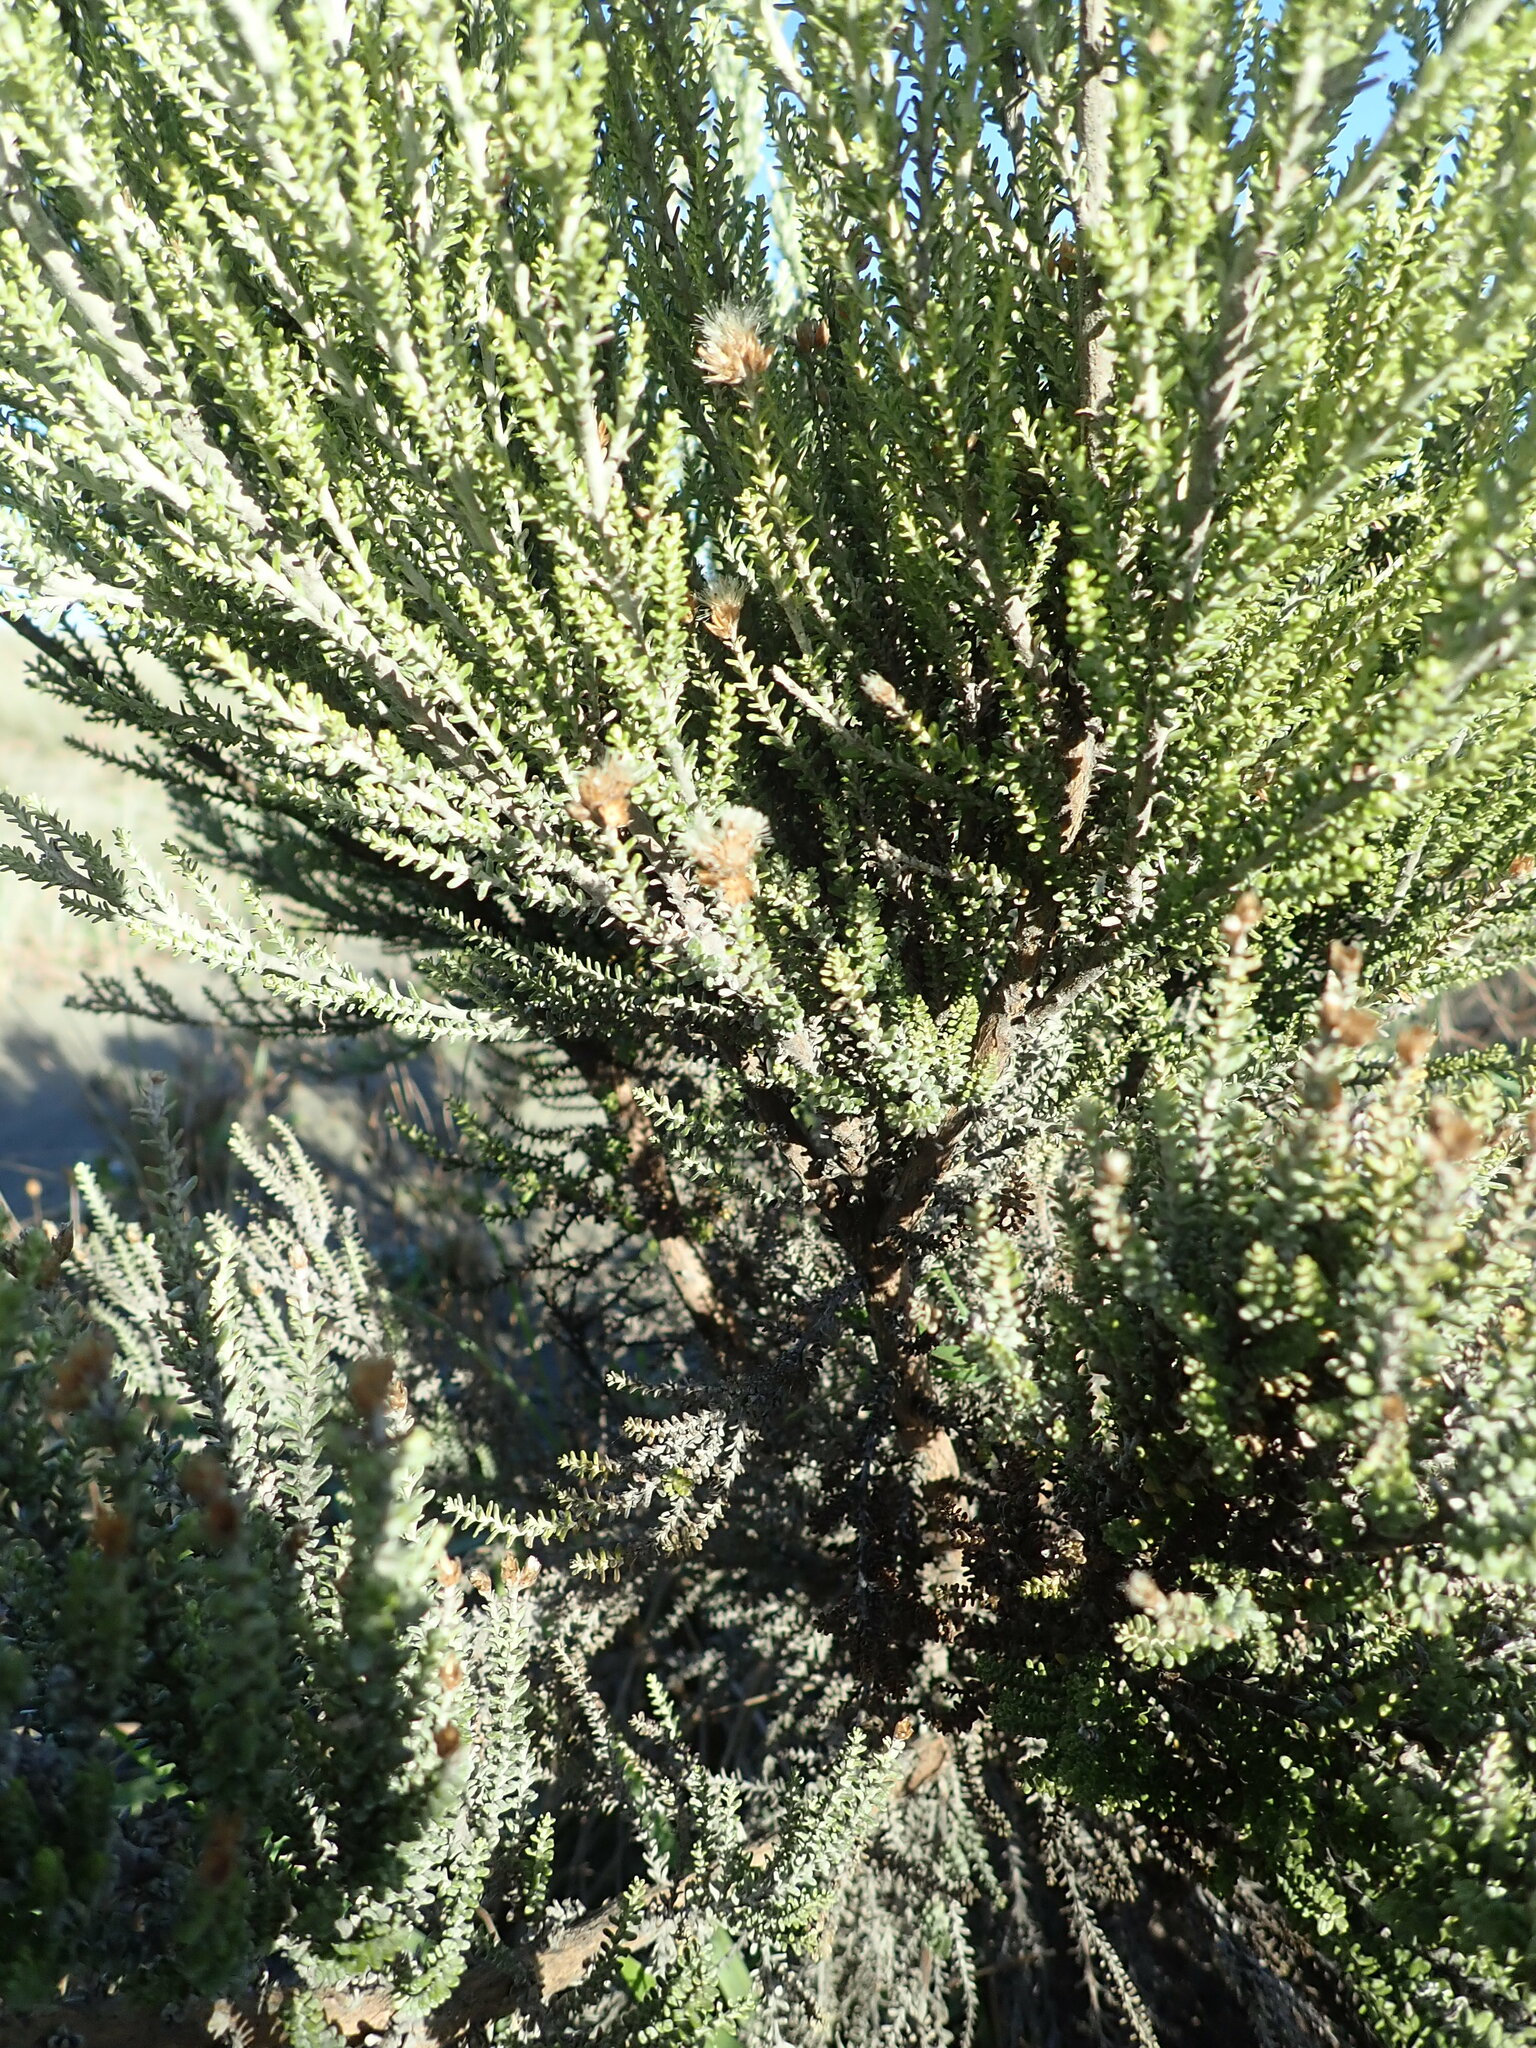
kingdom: Plantae
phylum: Tracheophyta
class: Magnoliopsida
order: Asterales
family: Asteraceae
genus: Ozothamnus
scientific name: Ozothamnus leptophyllus
